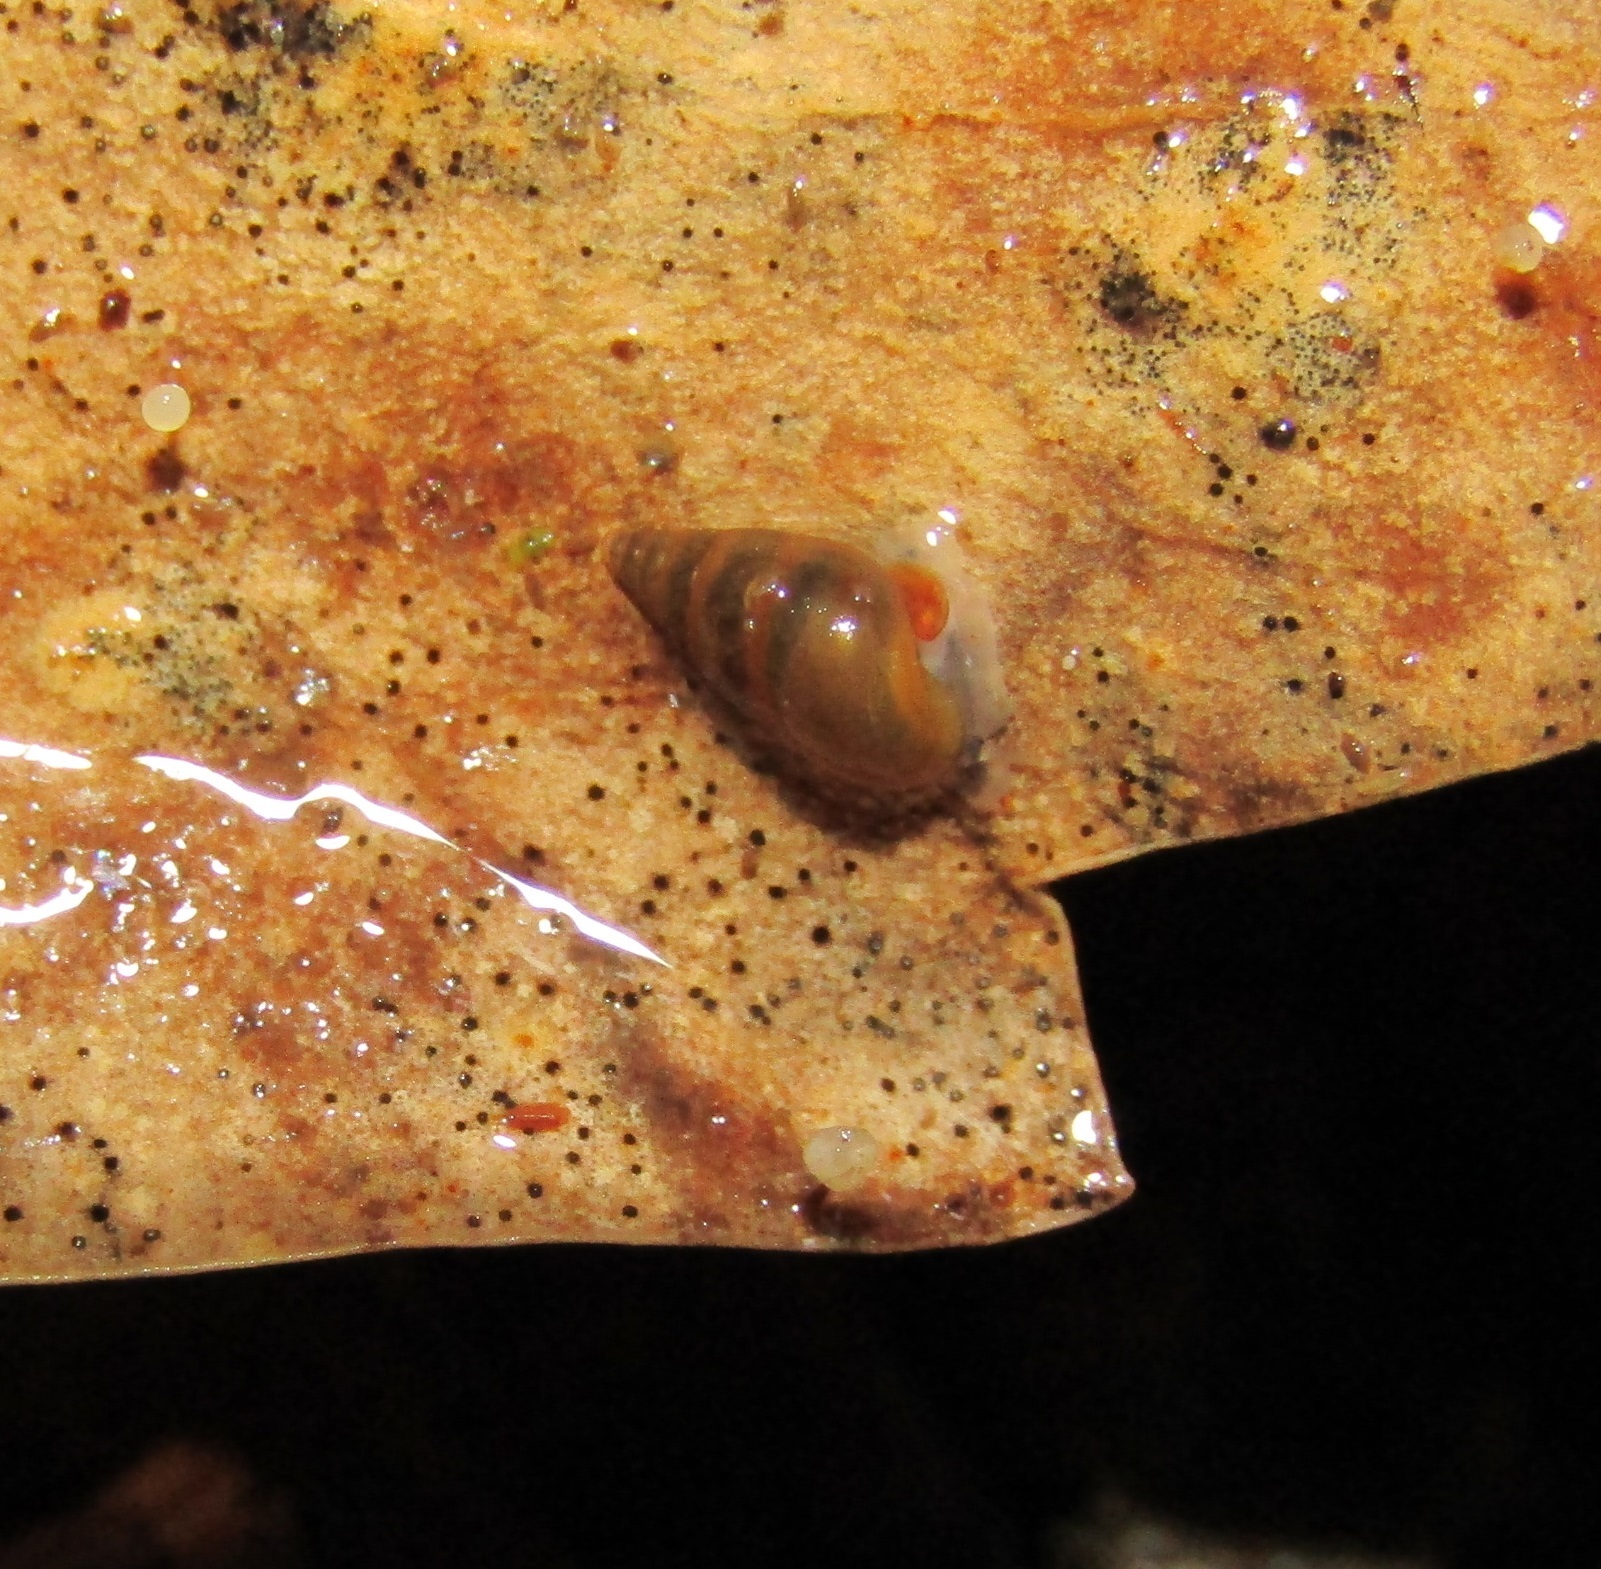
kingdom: Animalia
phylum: Mollusca
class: Gastropoda
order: Littorinimorpha
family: Tateidae
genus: Potamopyrgus
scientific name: Potamopyrgus antipodarum
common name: Jenkins' spire snail
